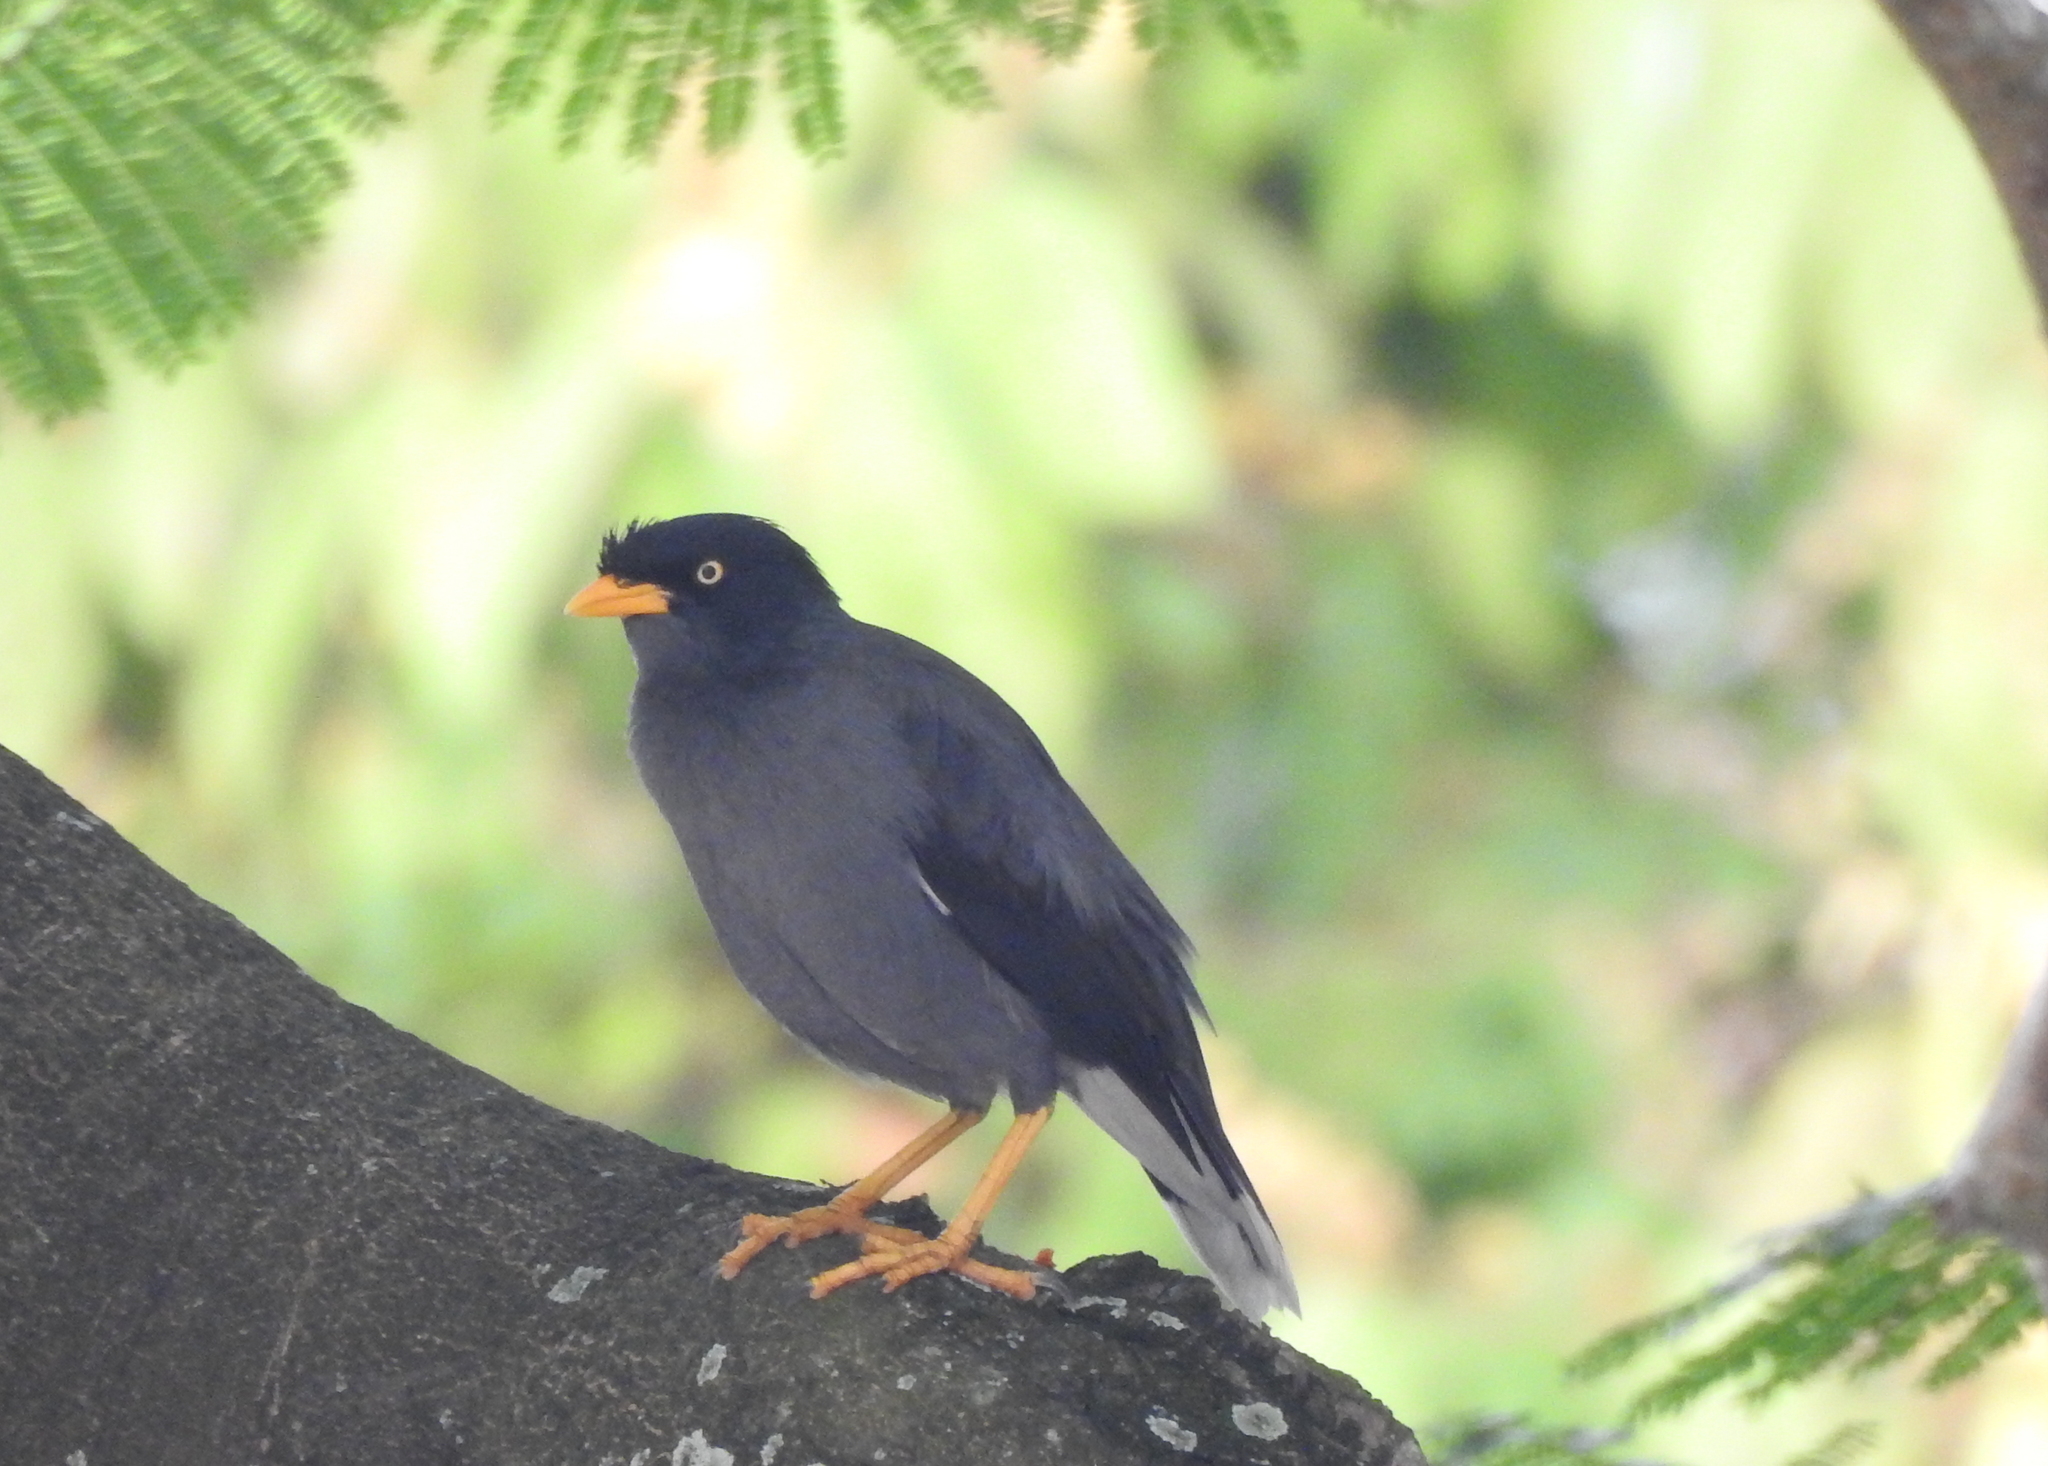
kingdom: Animalia
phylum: Chordata
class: Aves
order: Passeriformes
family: Sturnidae
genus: Acridotheres
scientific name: Acridotheres javanicus
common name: Javan myna
